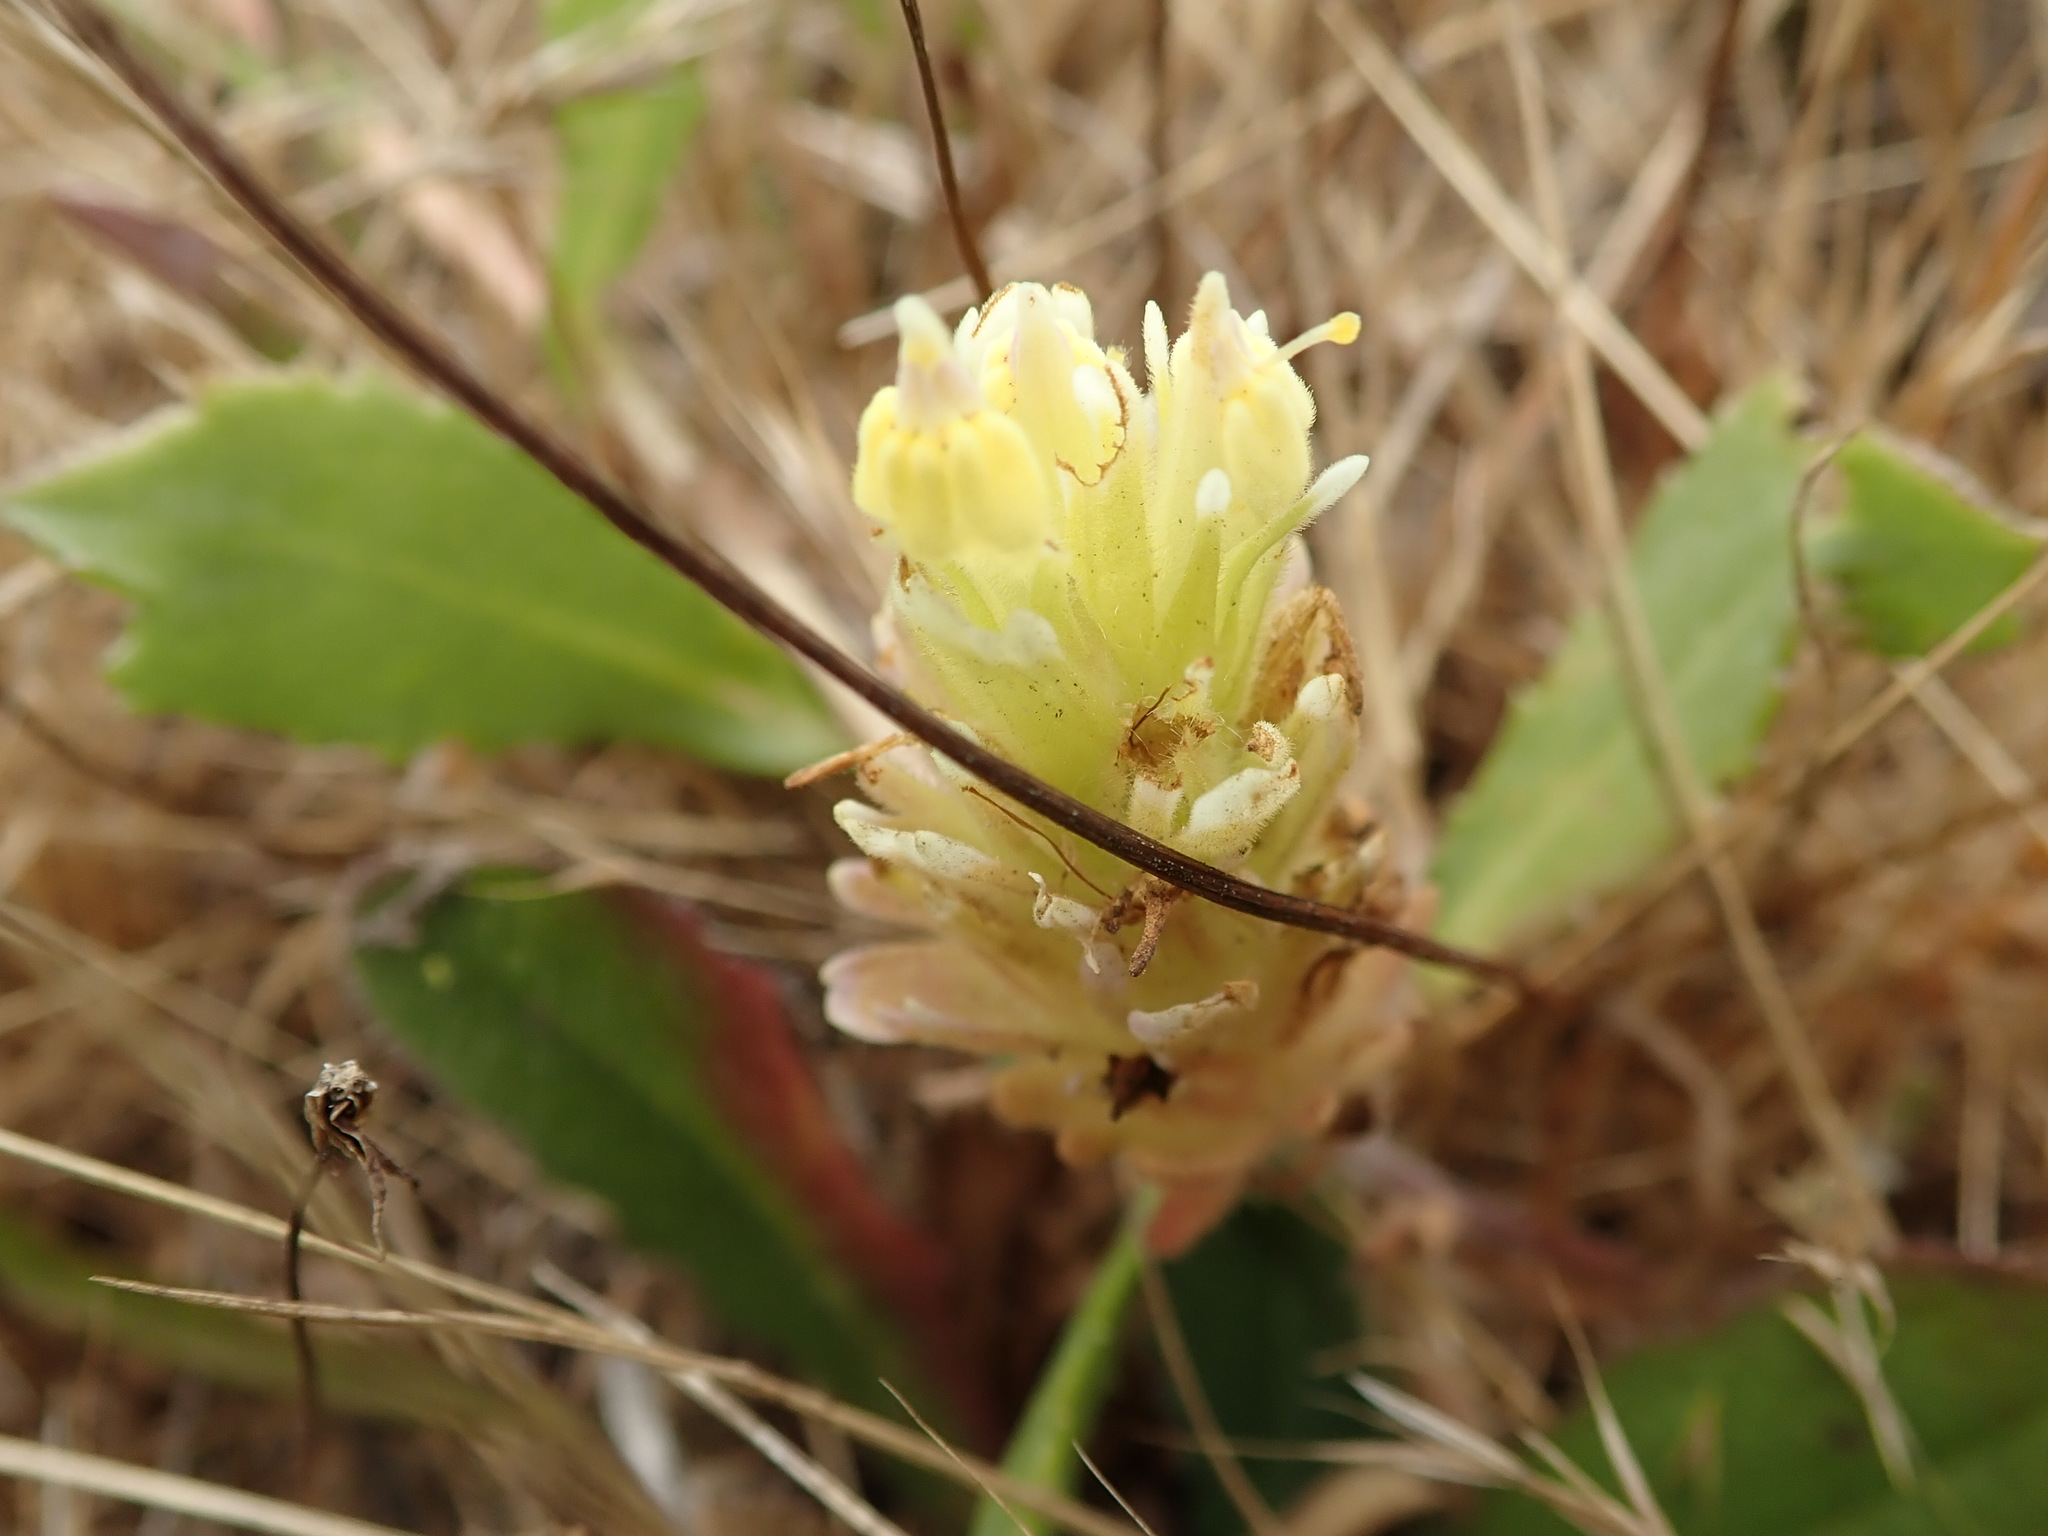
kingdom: Plantae
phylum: Tracheophyta
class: Magnoliopsida
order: Lamiales
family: Orobanchaceae
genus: Castilleja
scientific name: Castilleja ambigua
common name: Johnny-nip
